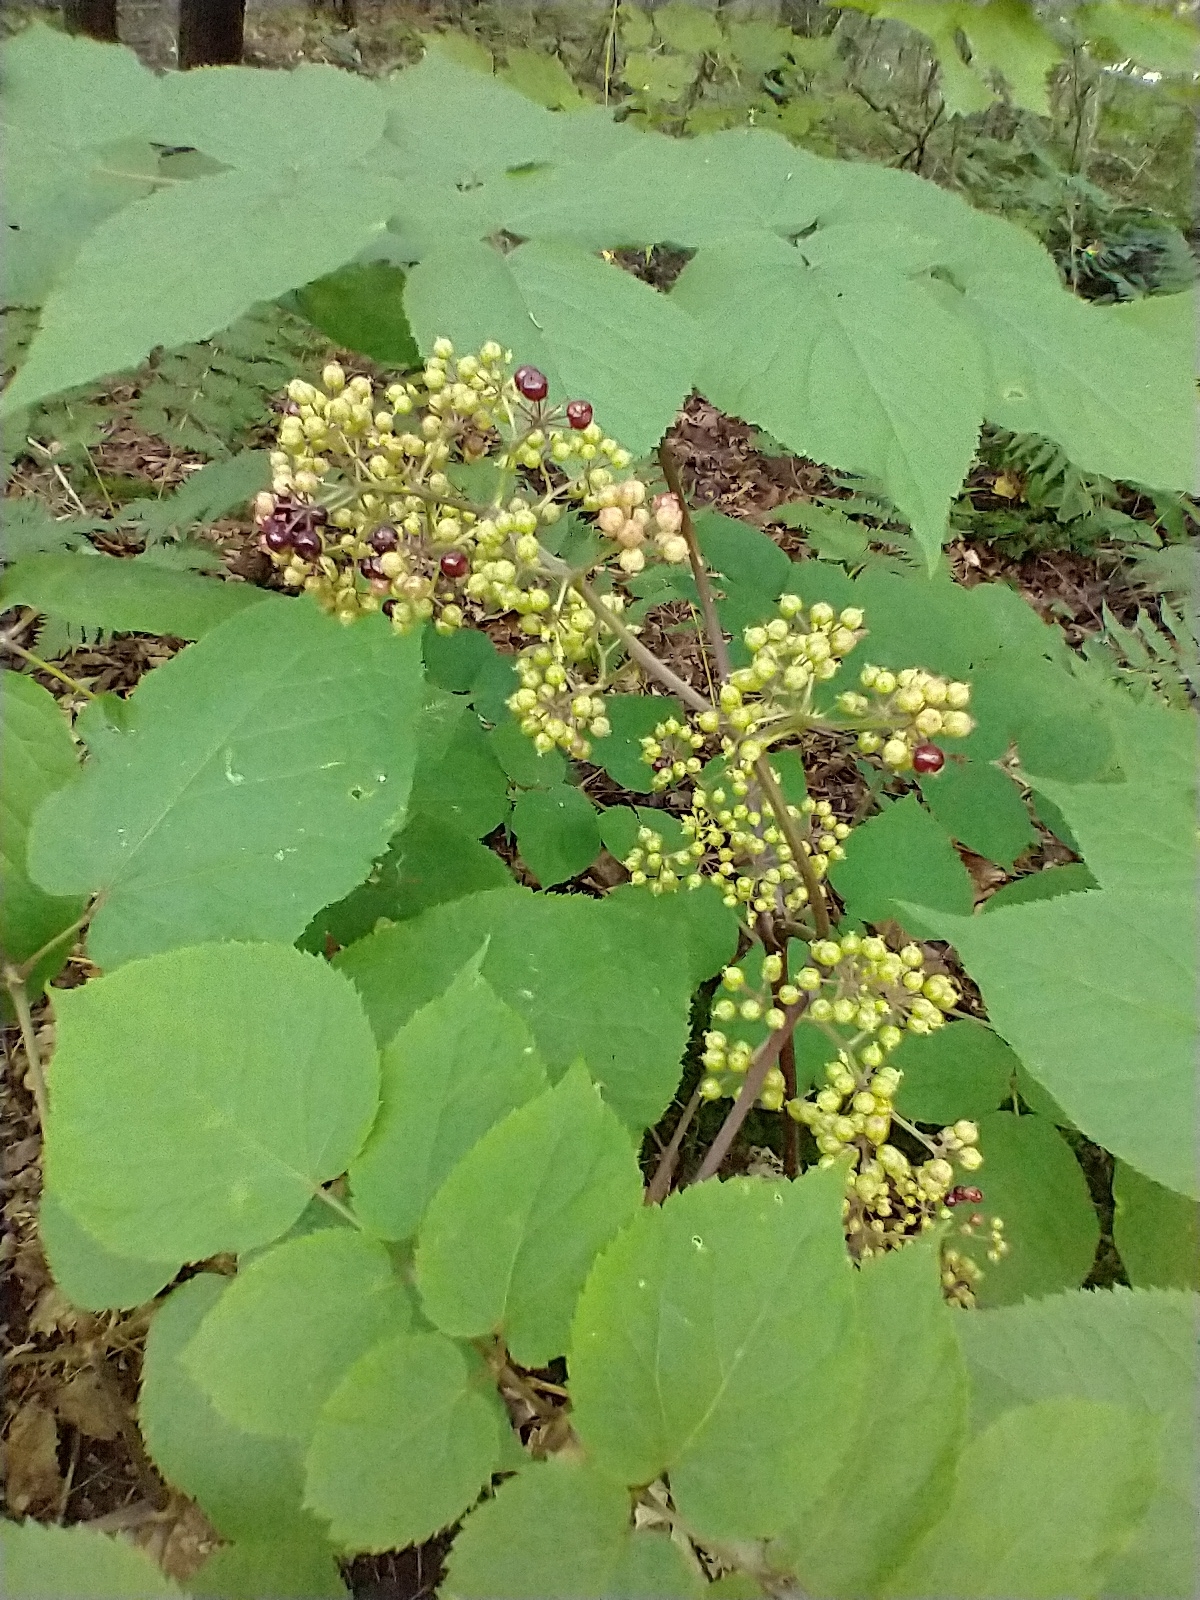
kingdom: Plantae
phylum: Tracheophyta
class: Magnoliopsida
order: Apiales
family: Araliaceae
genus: Aralia
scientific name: Aralia racemosa
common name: American-spikenard
